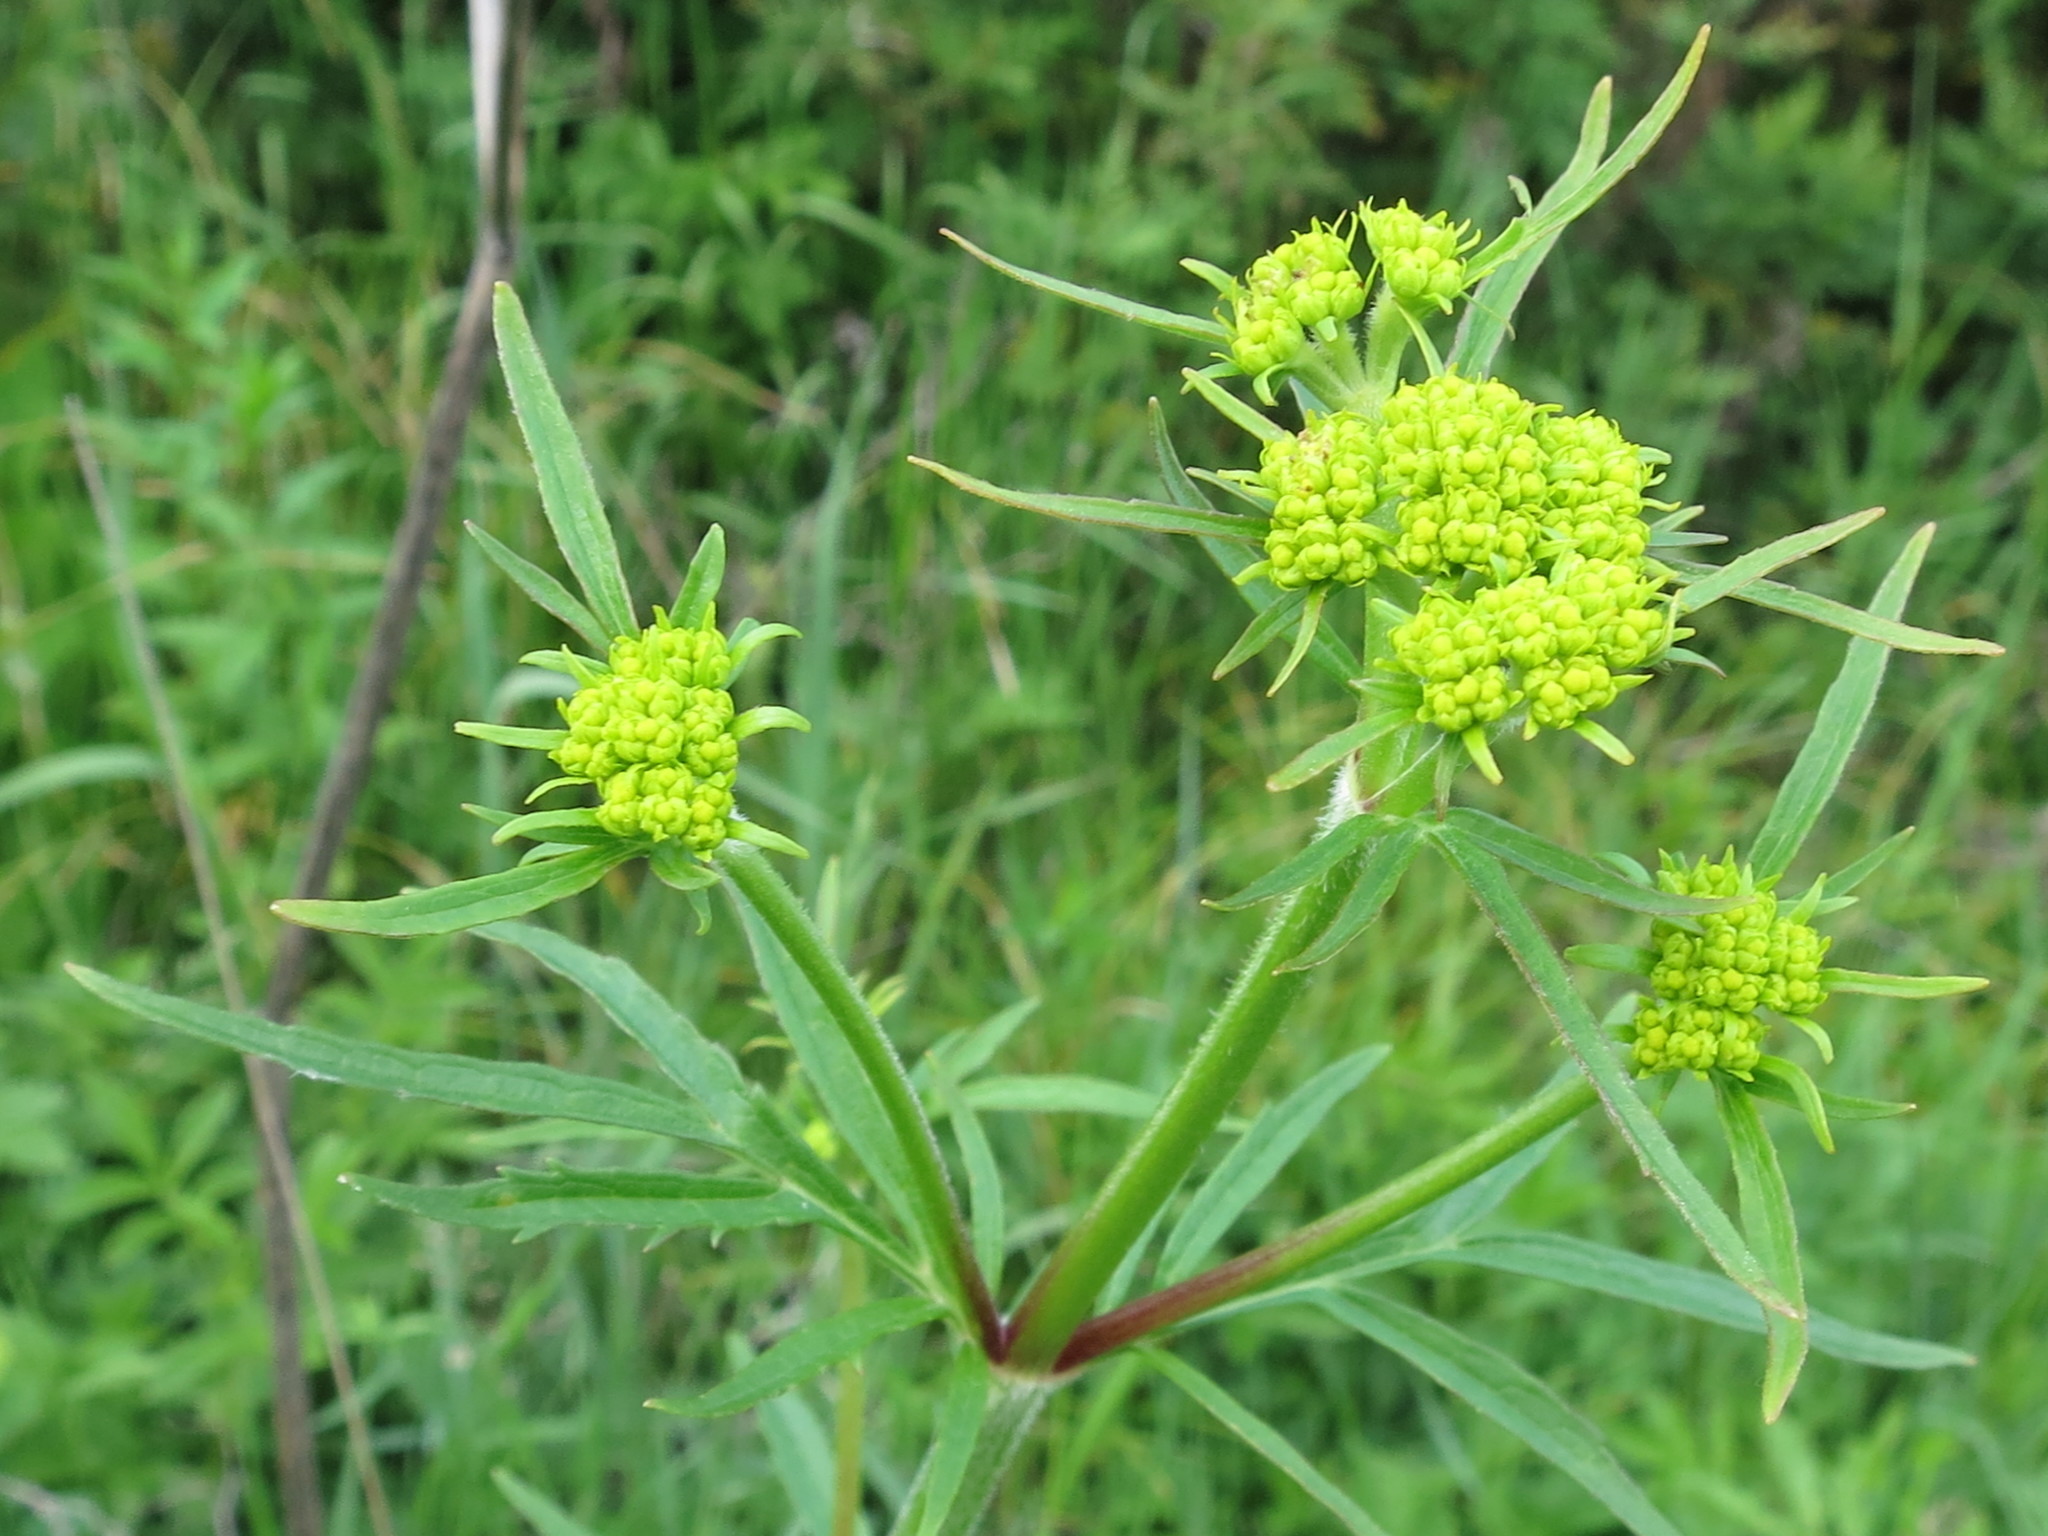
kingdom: Plantae
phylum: Tracheophyta
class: Magnoliopsida
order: Dipsacales
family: Caprifoliaceae
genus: Patrinia
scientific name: Patrinia scabiosifolia
